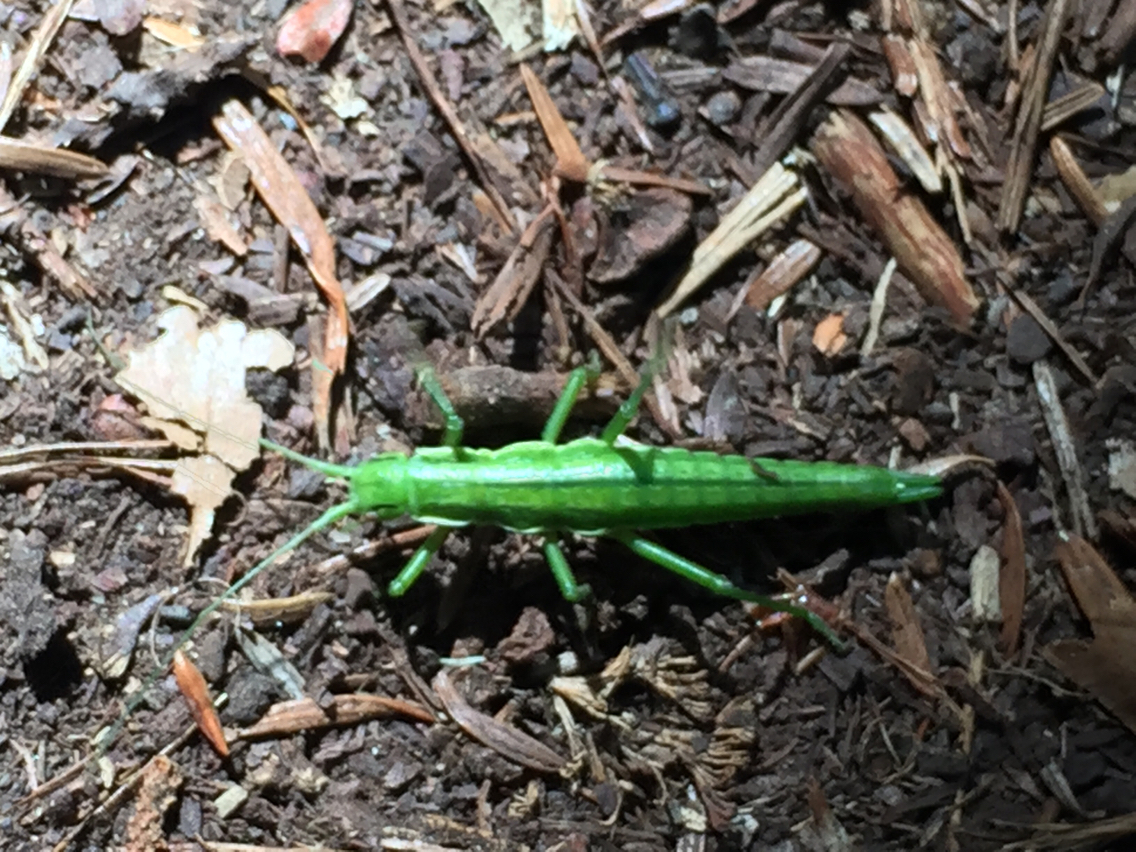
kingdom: Animalia
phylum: Arthropoda
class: Insecta
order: Phasmida
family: Timematidae
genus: Timema
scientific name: Timema poppense
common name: Poppe road timema
